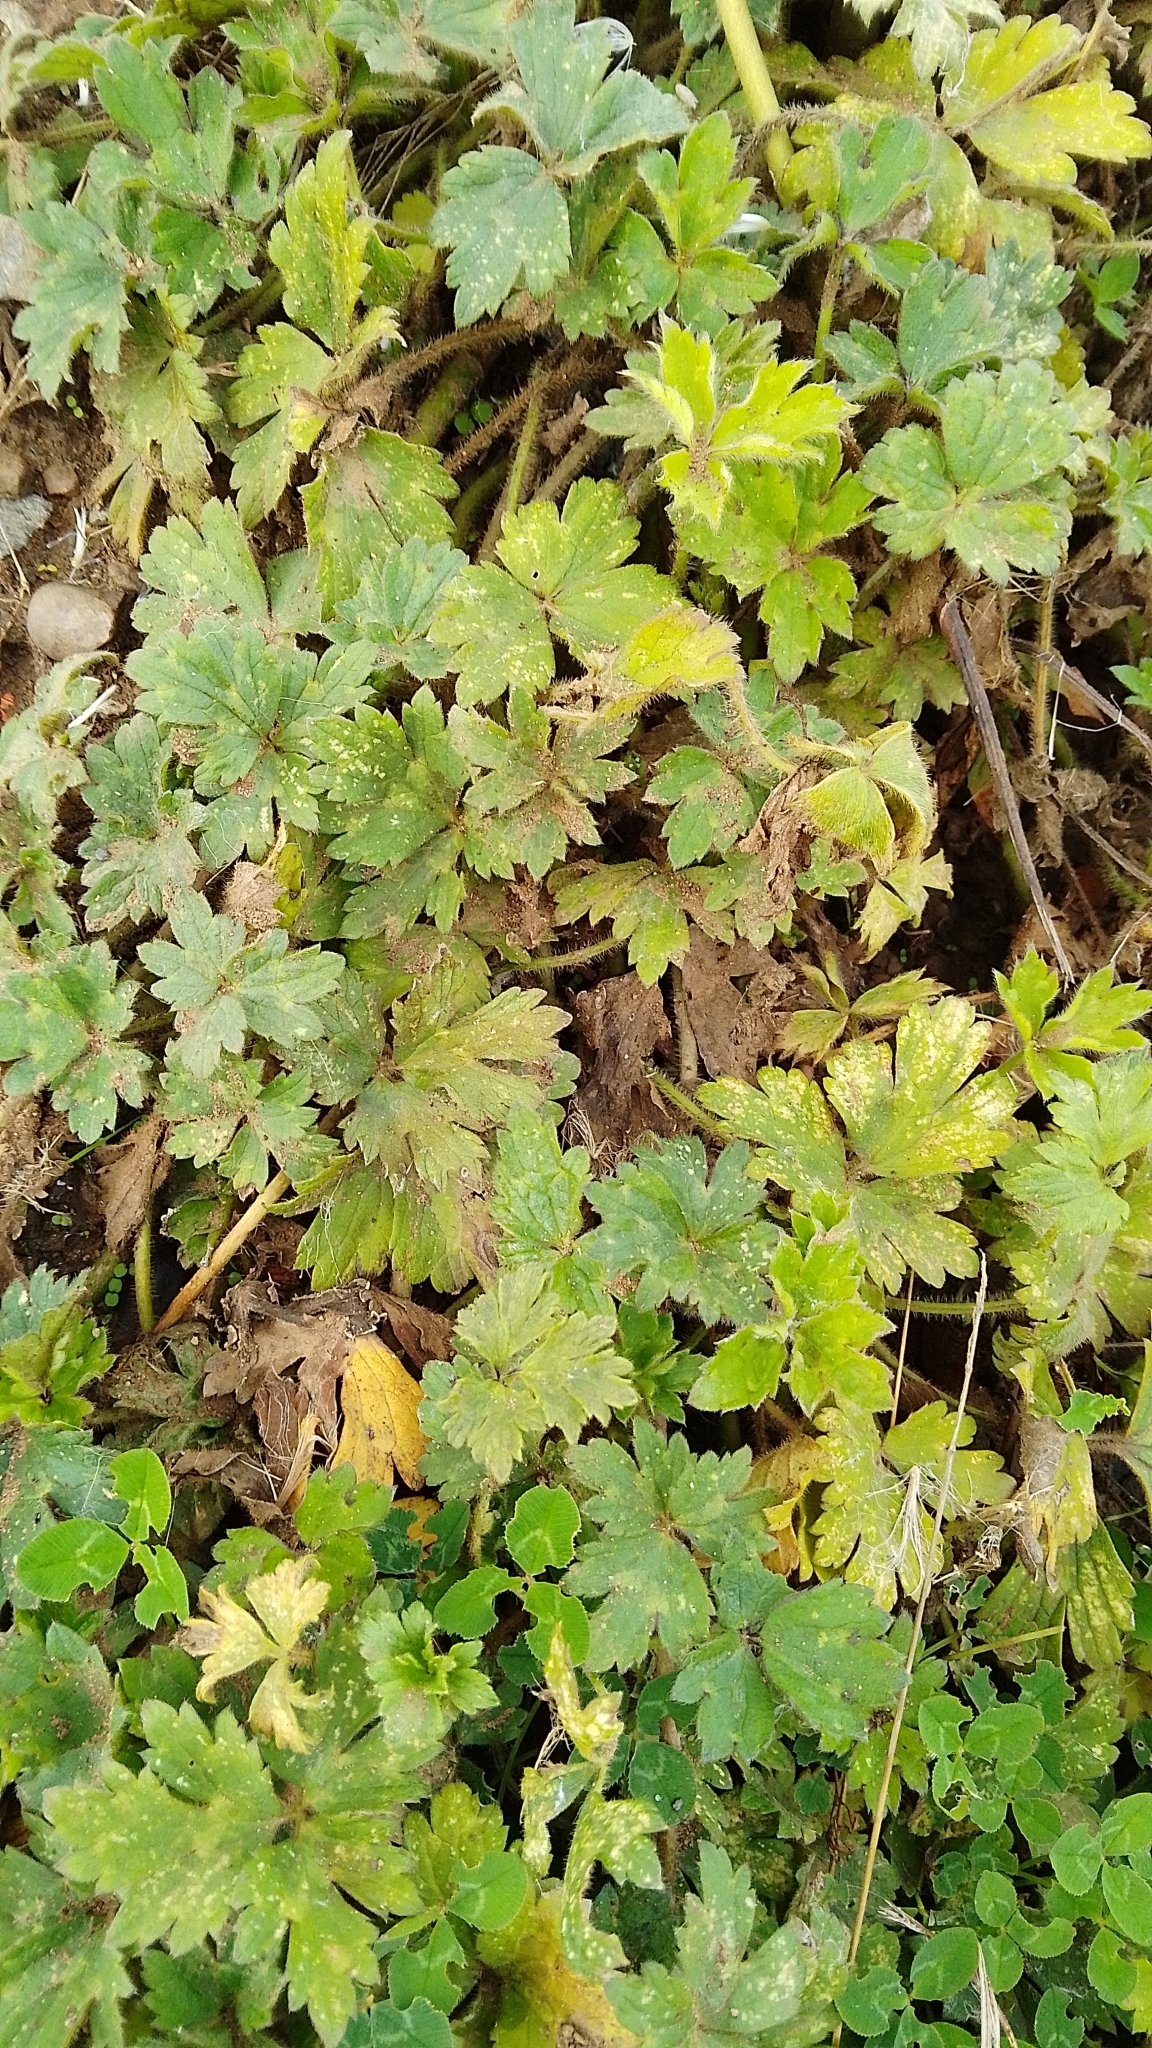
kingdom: Plantae
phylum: Tracheophyta
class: Magnoliopsida
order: Ranunculales
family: Ranunculaceae
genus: Ranunculus
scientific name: Ranunculus repens
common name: Creeping buttercup
